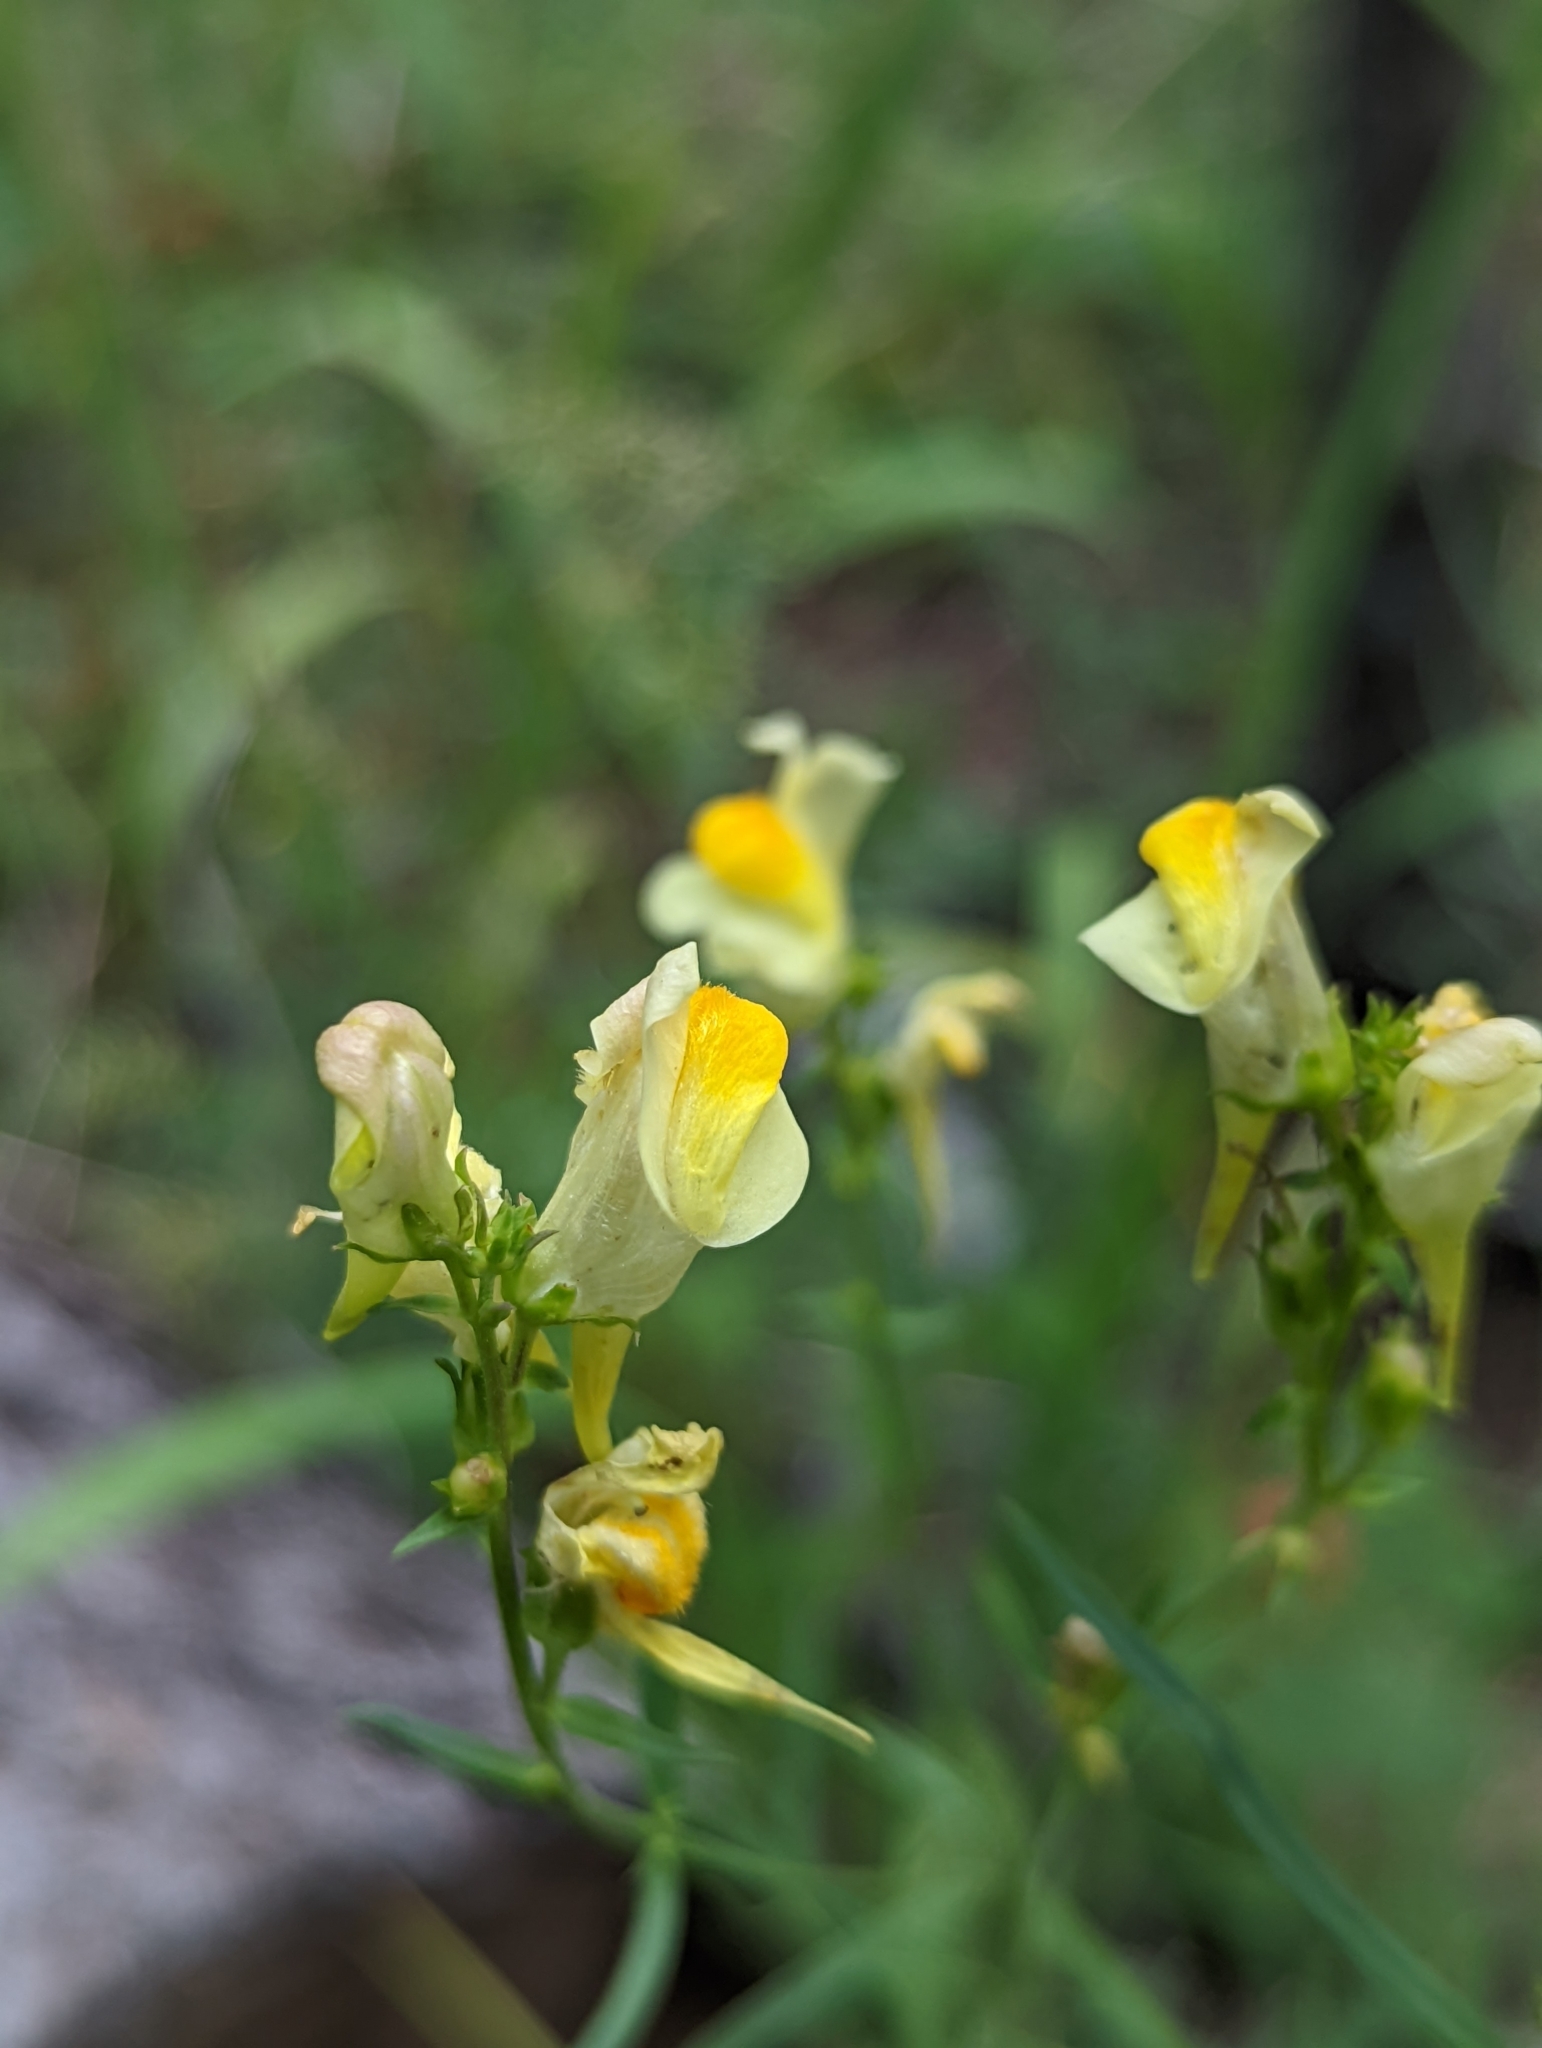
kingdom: Plantae
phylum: Tracheophyta
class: Magnoliopsida
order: Lamiales
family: Plantaginaceae
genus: Linaria
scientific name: Linaria vulgaris
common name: Butter and eggs
